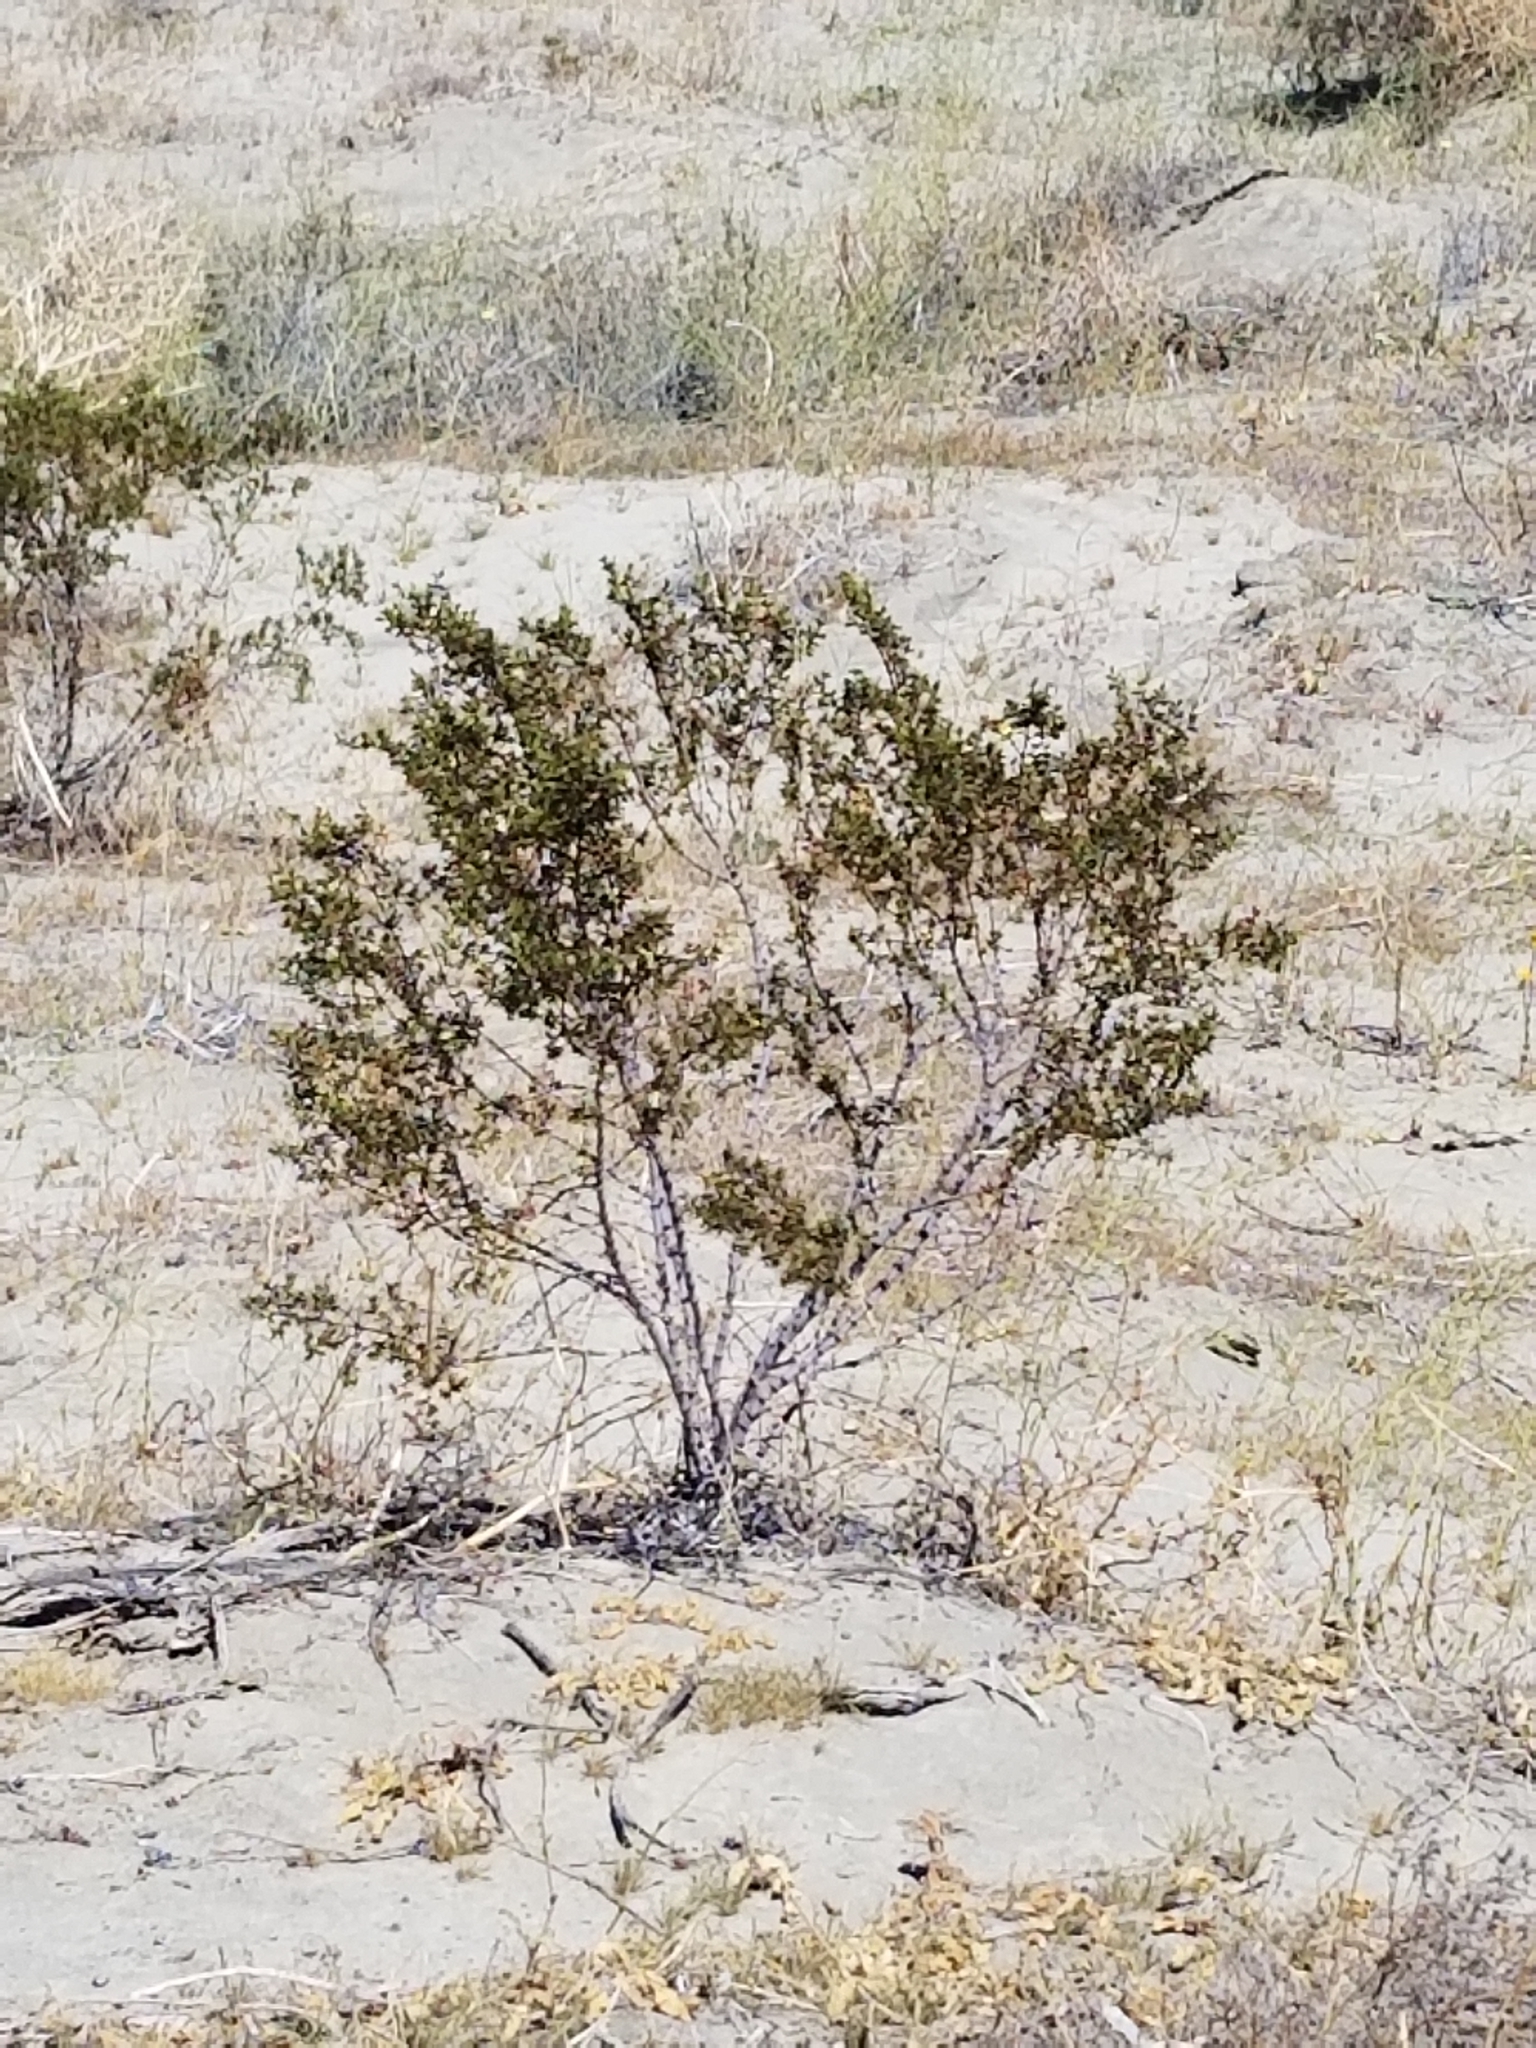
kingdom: Plantae
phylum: Tracheophyta
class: Magnoliopsida
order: Zygophyllales
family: Zygophyllaceae
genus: Larrea
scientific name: Larrea tridentata
